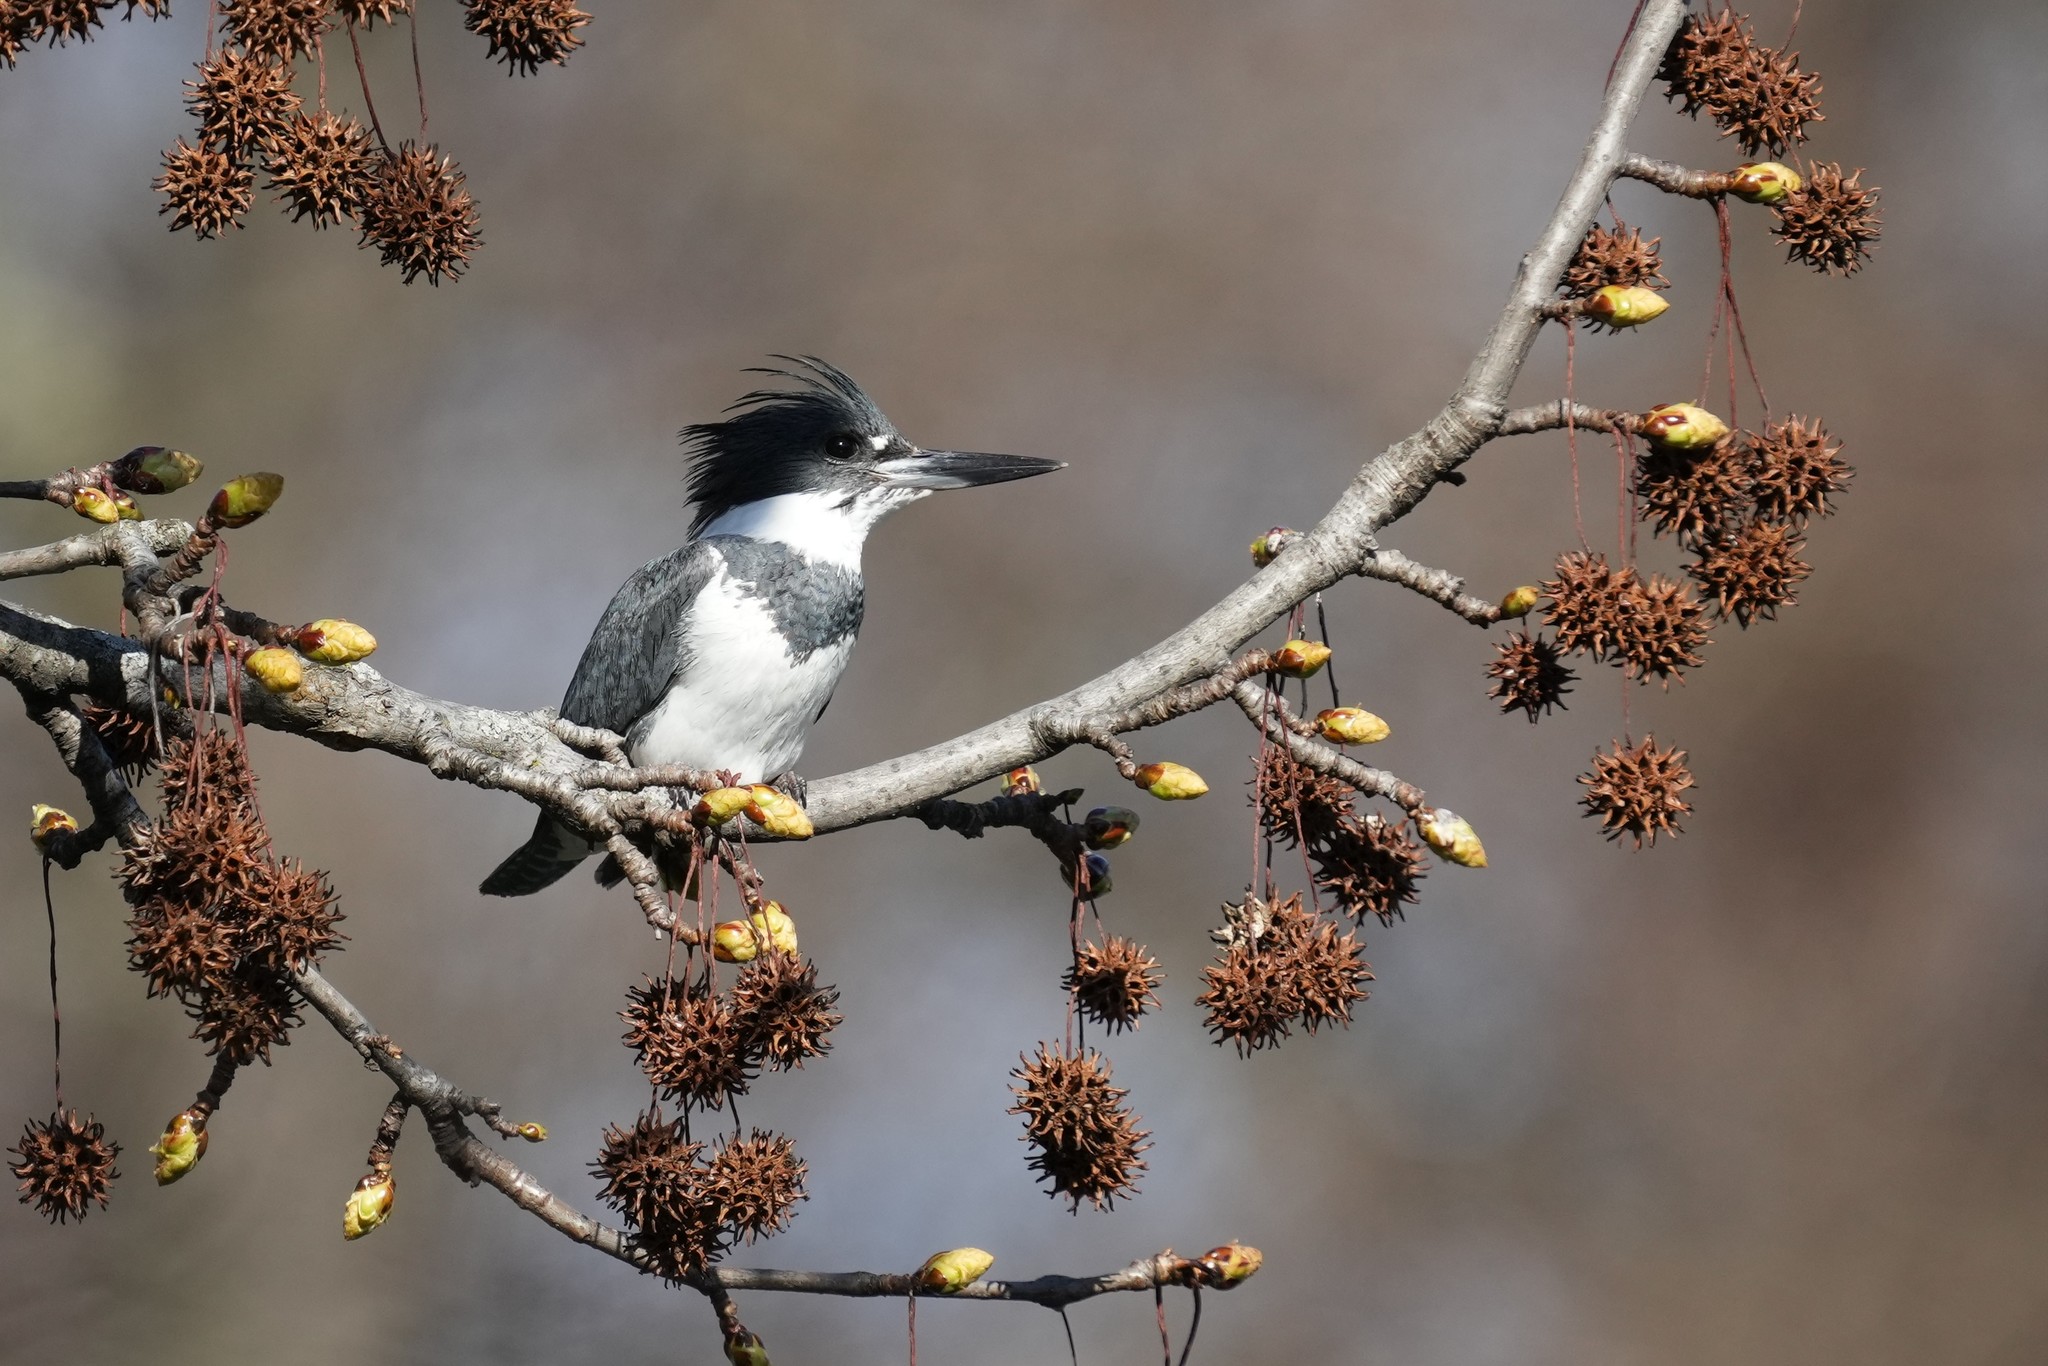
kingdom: Animalia
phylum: Chordata
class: Aves
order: Coraciiformes
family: Alcedinidae
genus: Megaceryle
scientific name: Megaceryle alcyon
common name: Belted kingfisher
